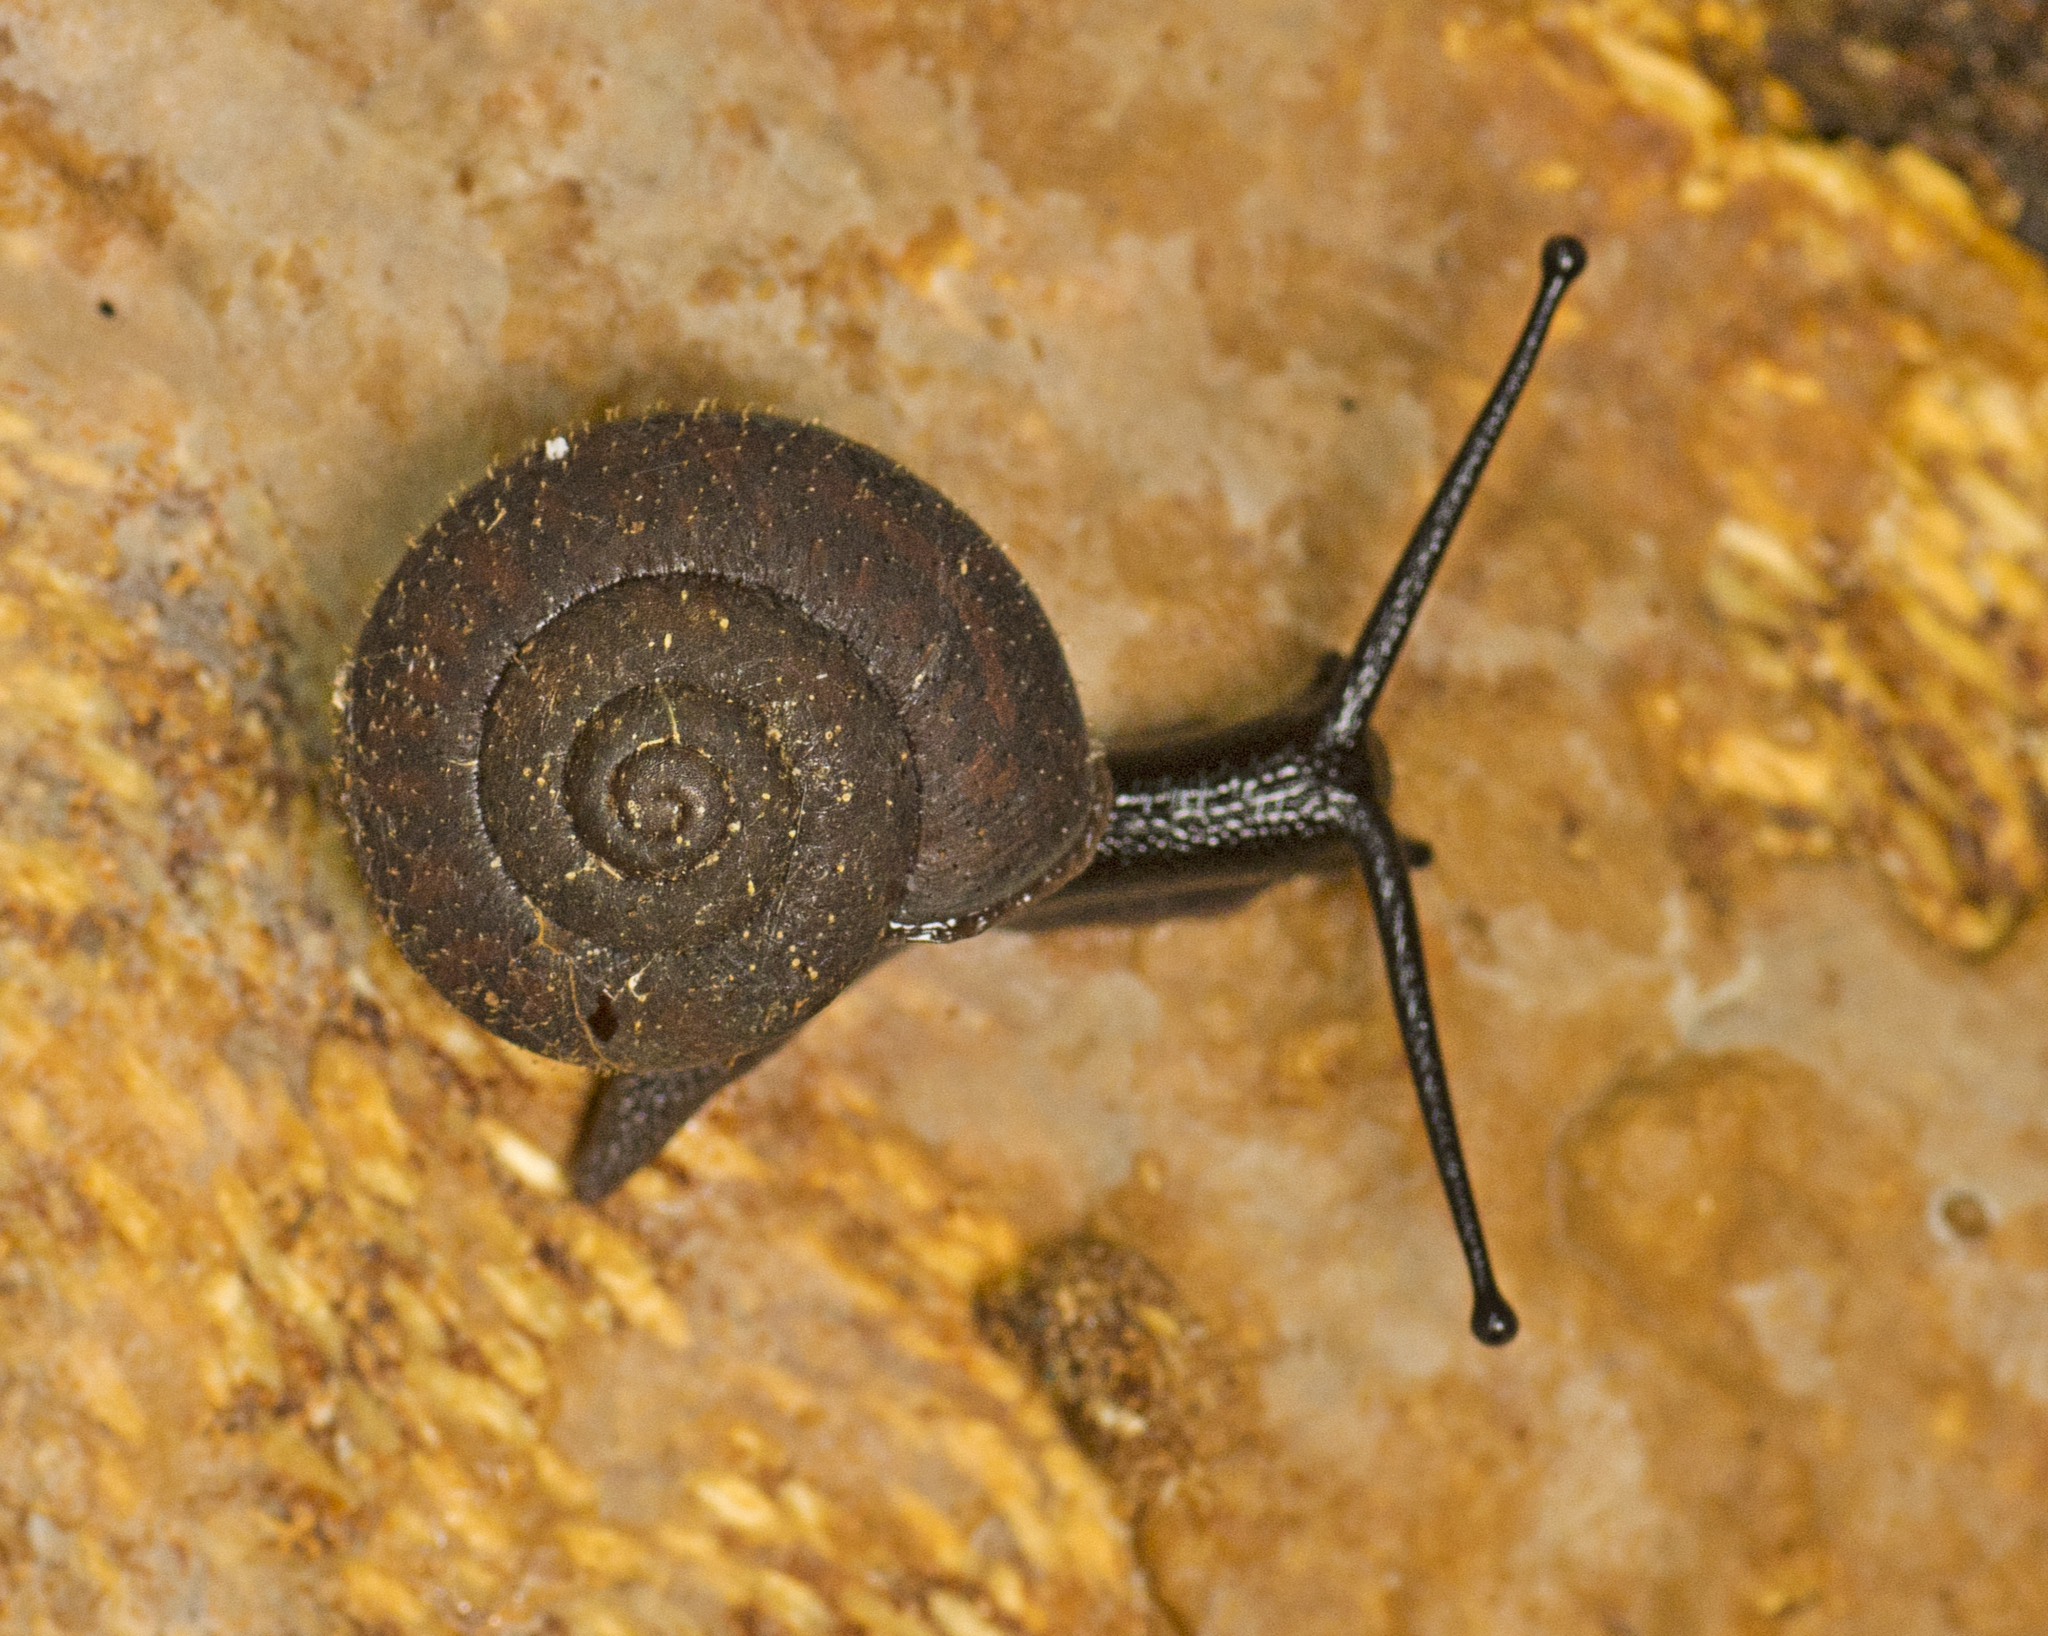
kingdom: Animalia
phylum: Mollusca
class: Gastropoda
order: Stylommatophora
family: Camaenidae
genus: Ramogenia
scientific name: Ramogenia challengeri
